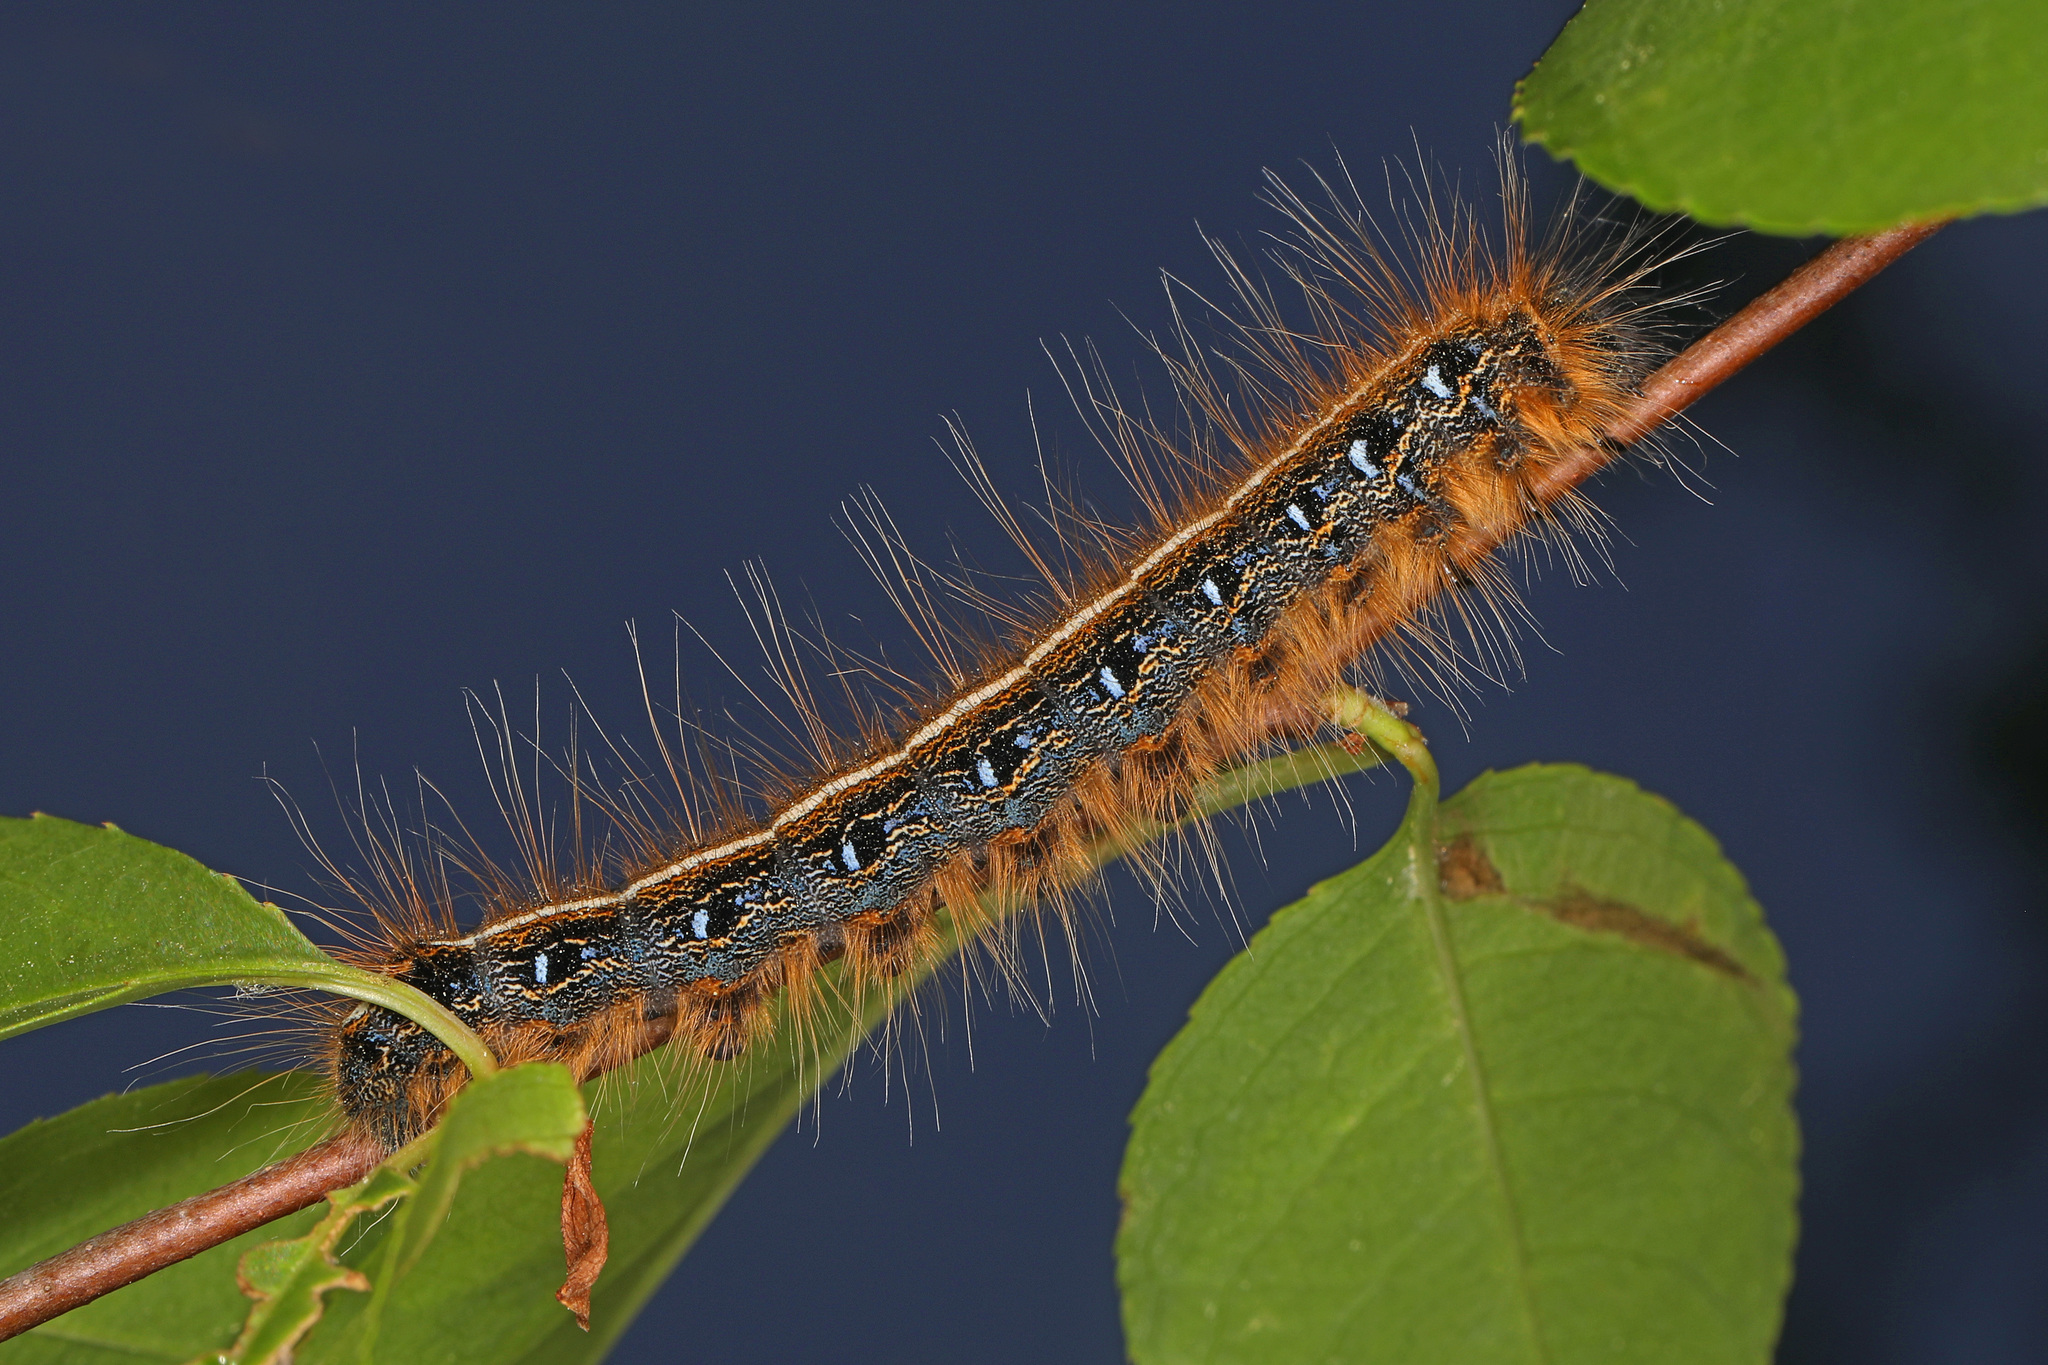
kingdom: Animalia
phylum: Arthropoda
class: Insecta
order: Lepidoptera
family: Lasiocampidae
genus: Malacosoma
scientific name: Malacosoma americana
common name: Eastern tent caterpillar moth
